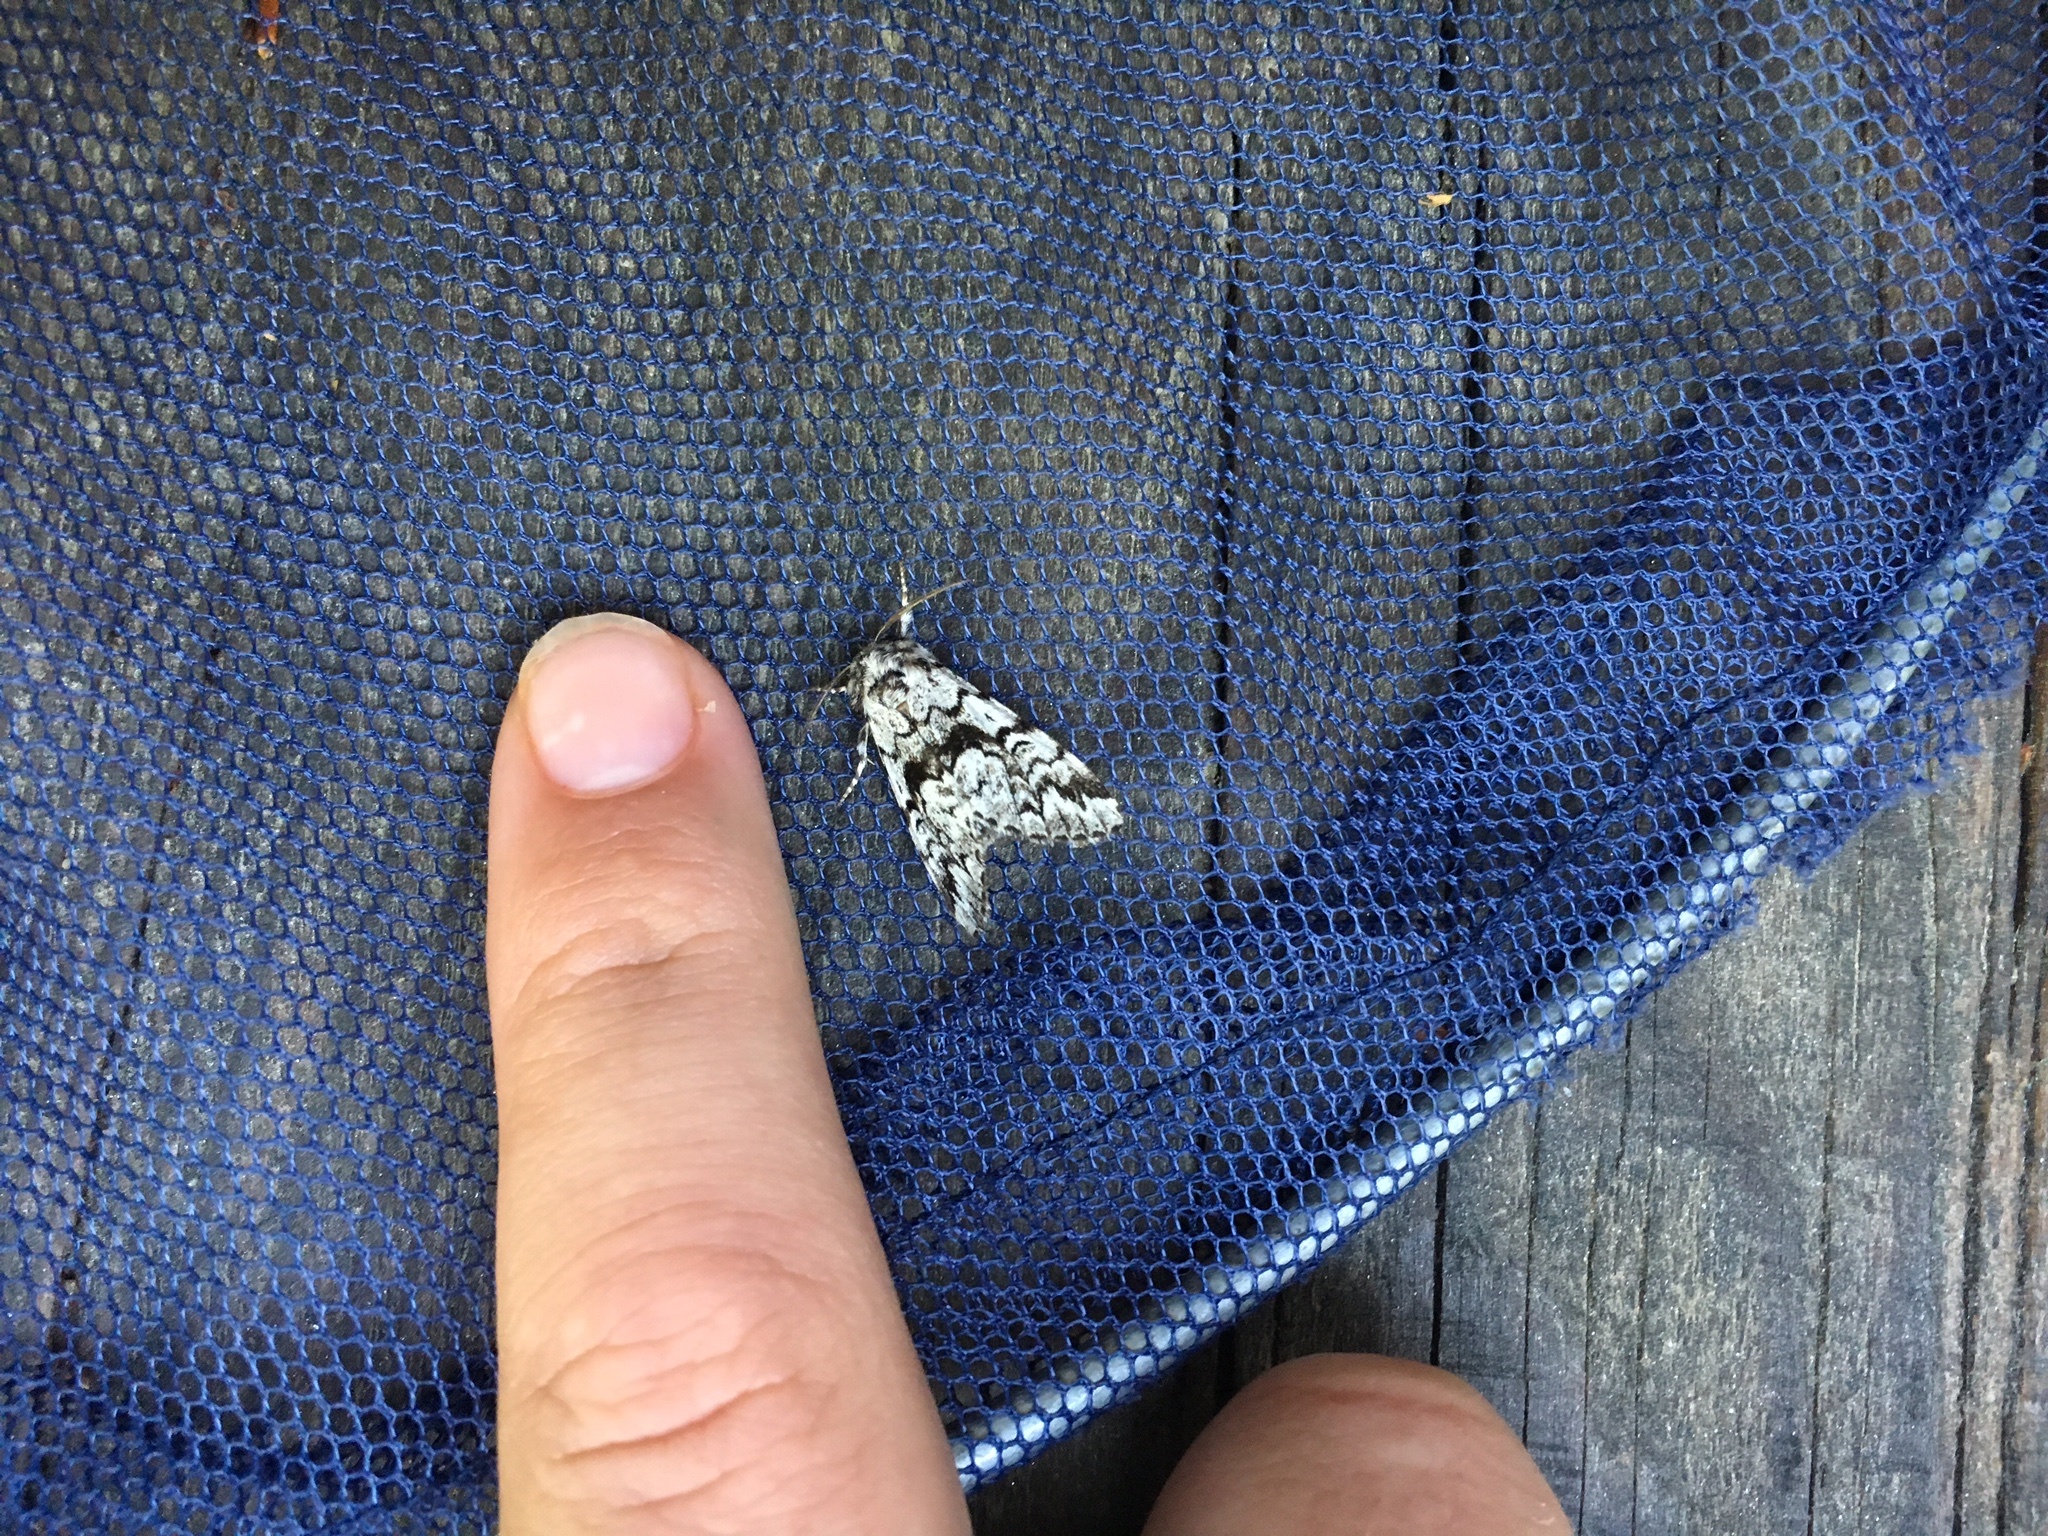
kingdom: Animalia
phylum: Arthropoda
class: Insecta
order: Lepidoptera
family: Noctuidae
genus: Panthea
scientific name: Panthea acronyctoides
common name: Black zigzag moth
